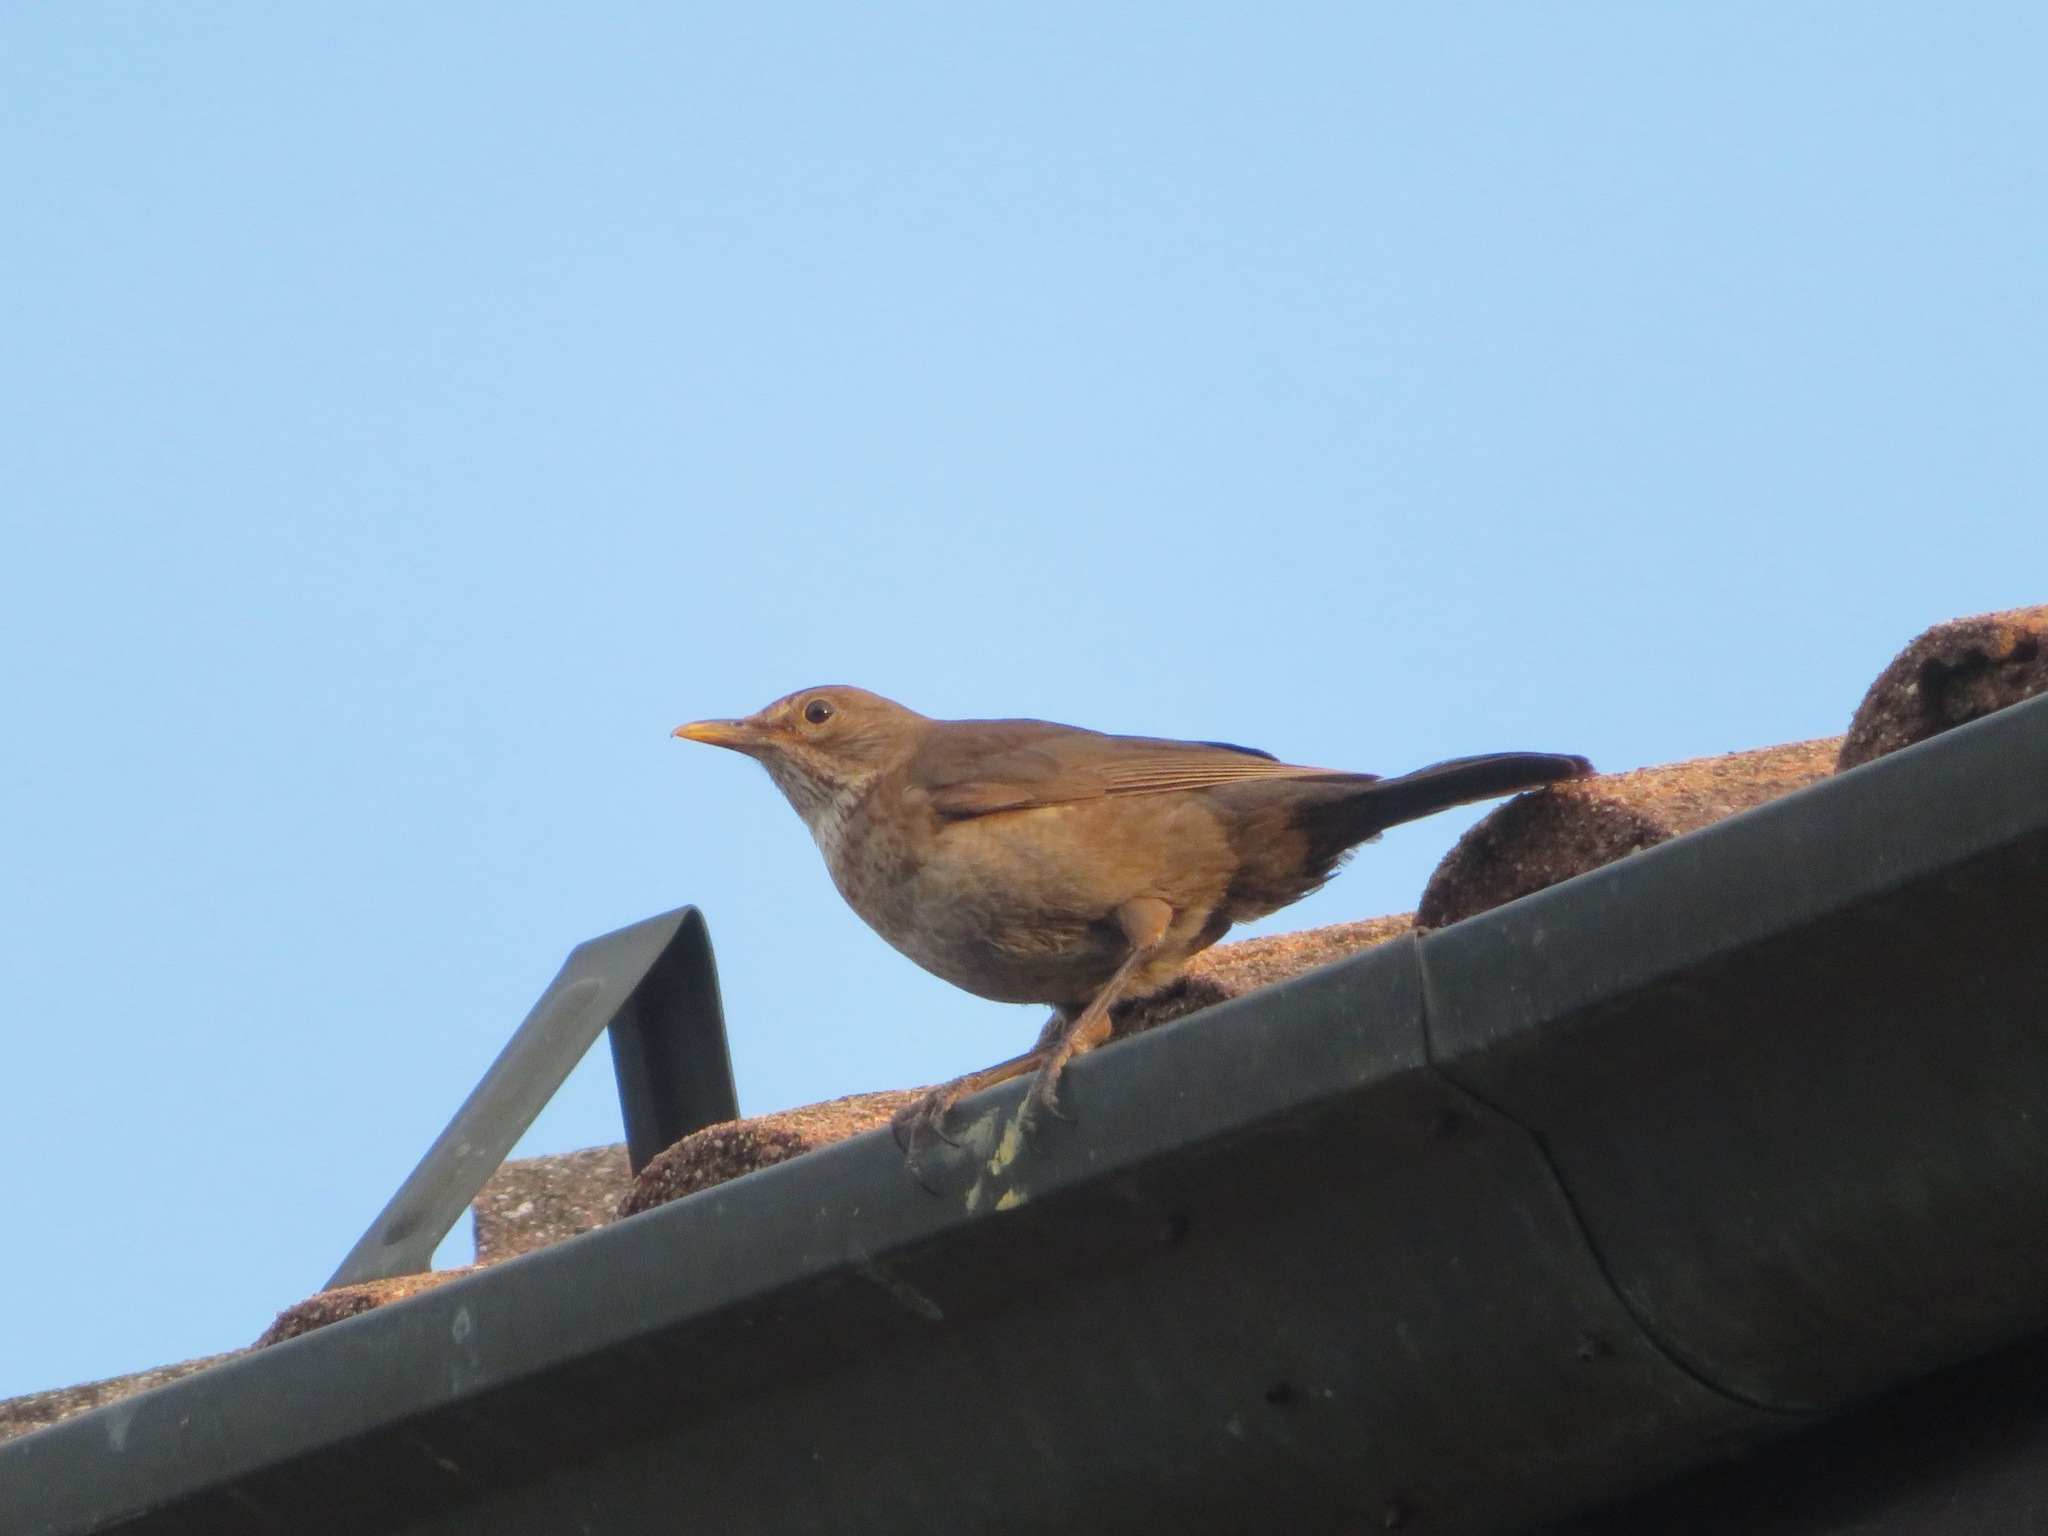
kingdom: Animalia
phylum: Chordata
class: Aves
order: Passeriformes
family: Turdidae
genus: Turdus
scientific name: Turdus merula
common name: Common blackbird
